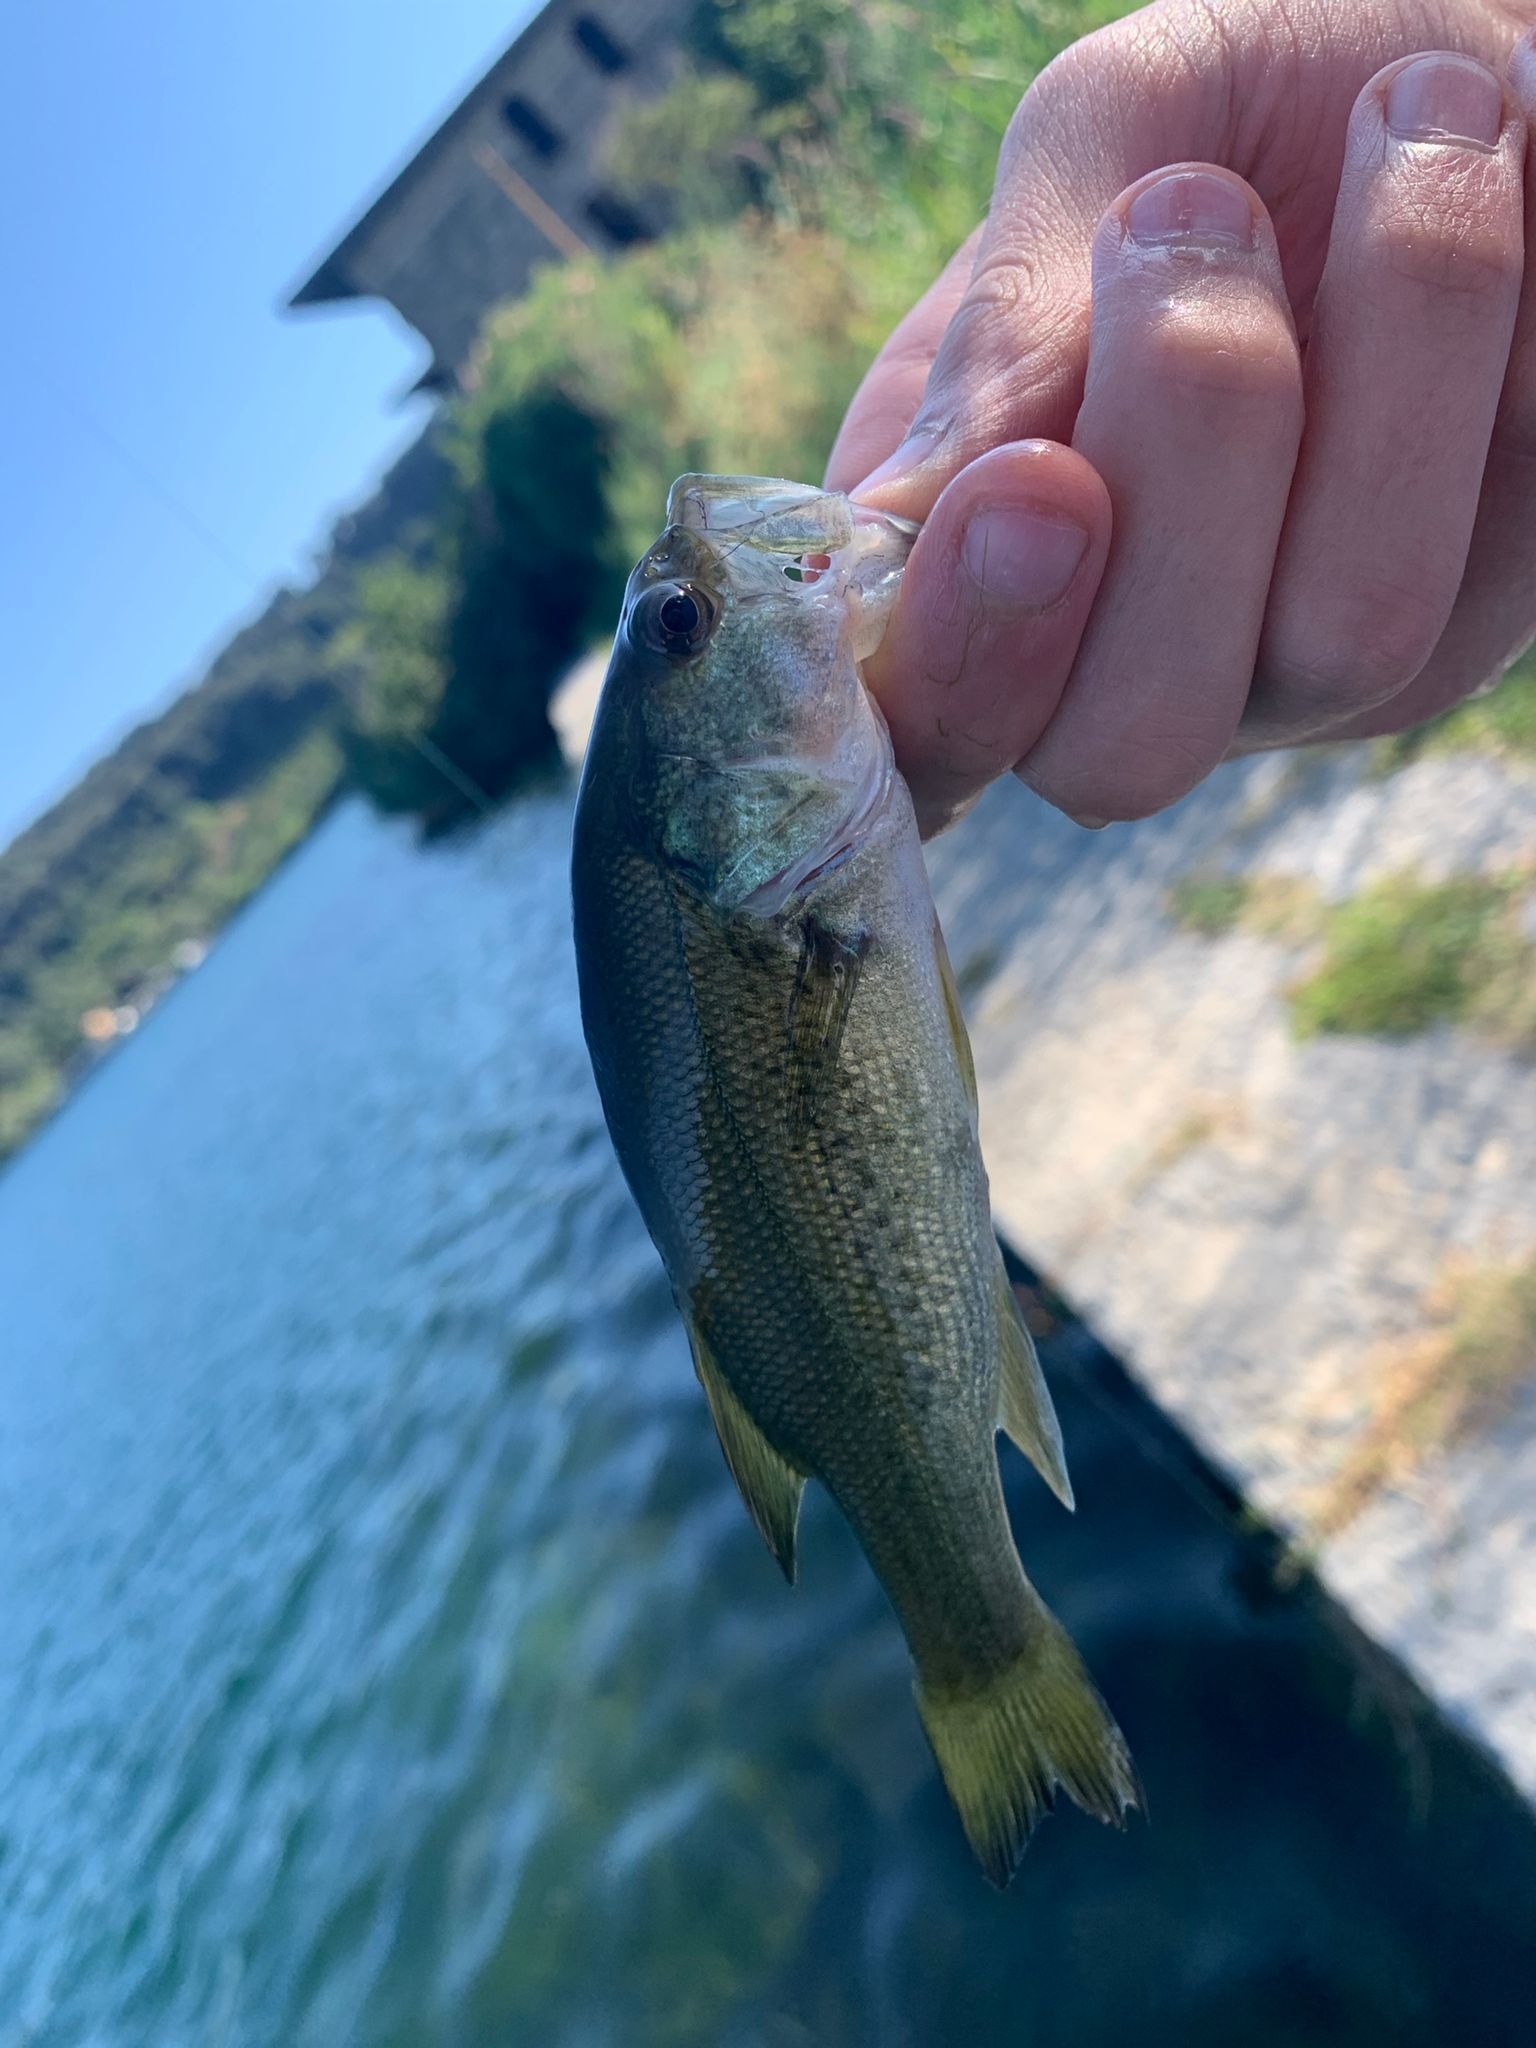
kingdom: Animalia
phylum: Chordata
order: Perciformes
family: Centrarchidae
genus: Micropterus
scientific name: Micropterus
